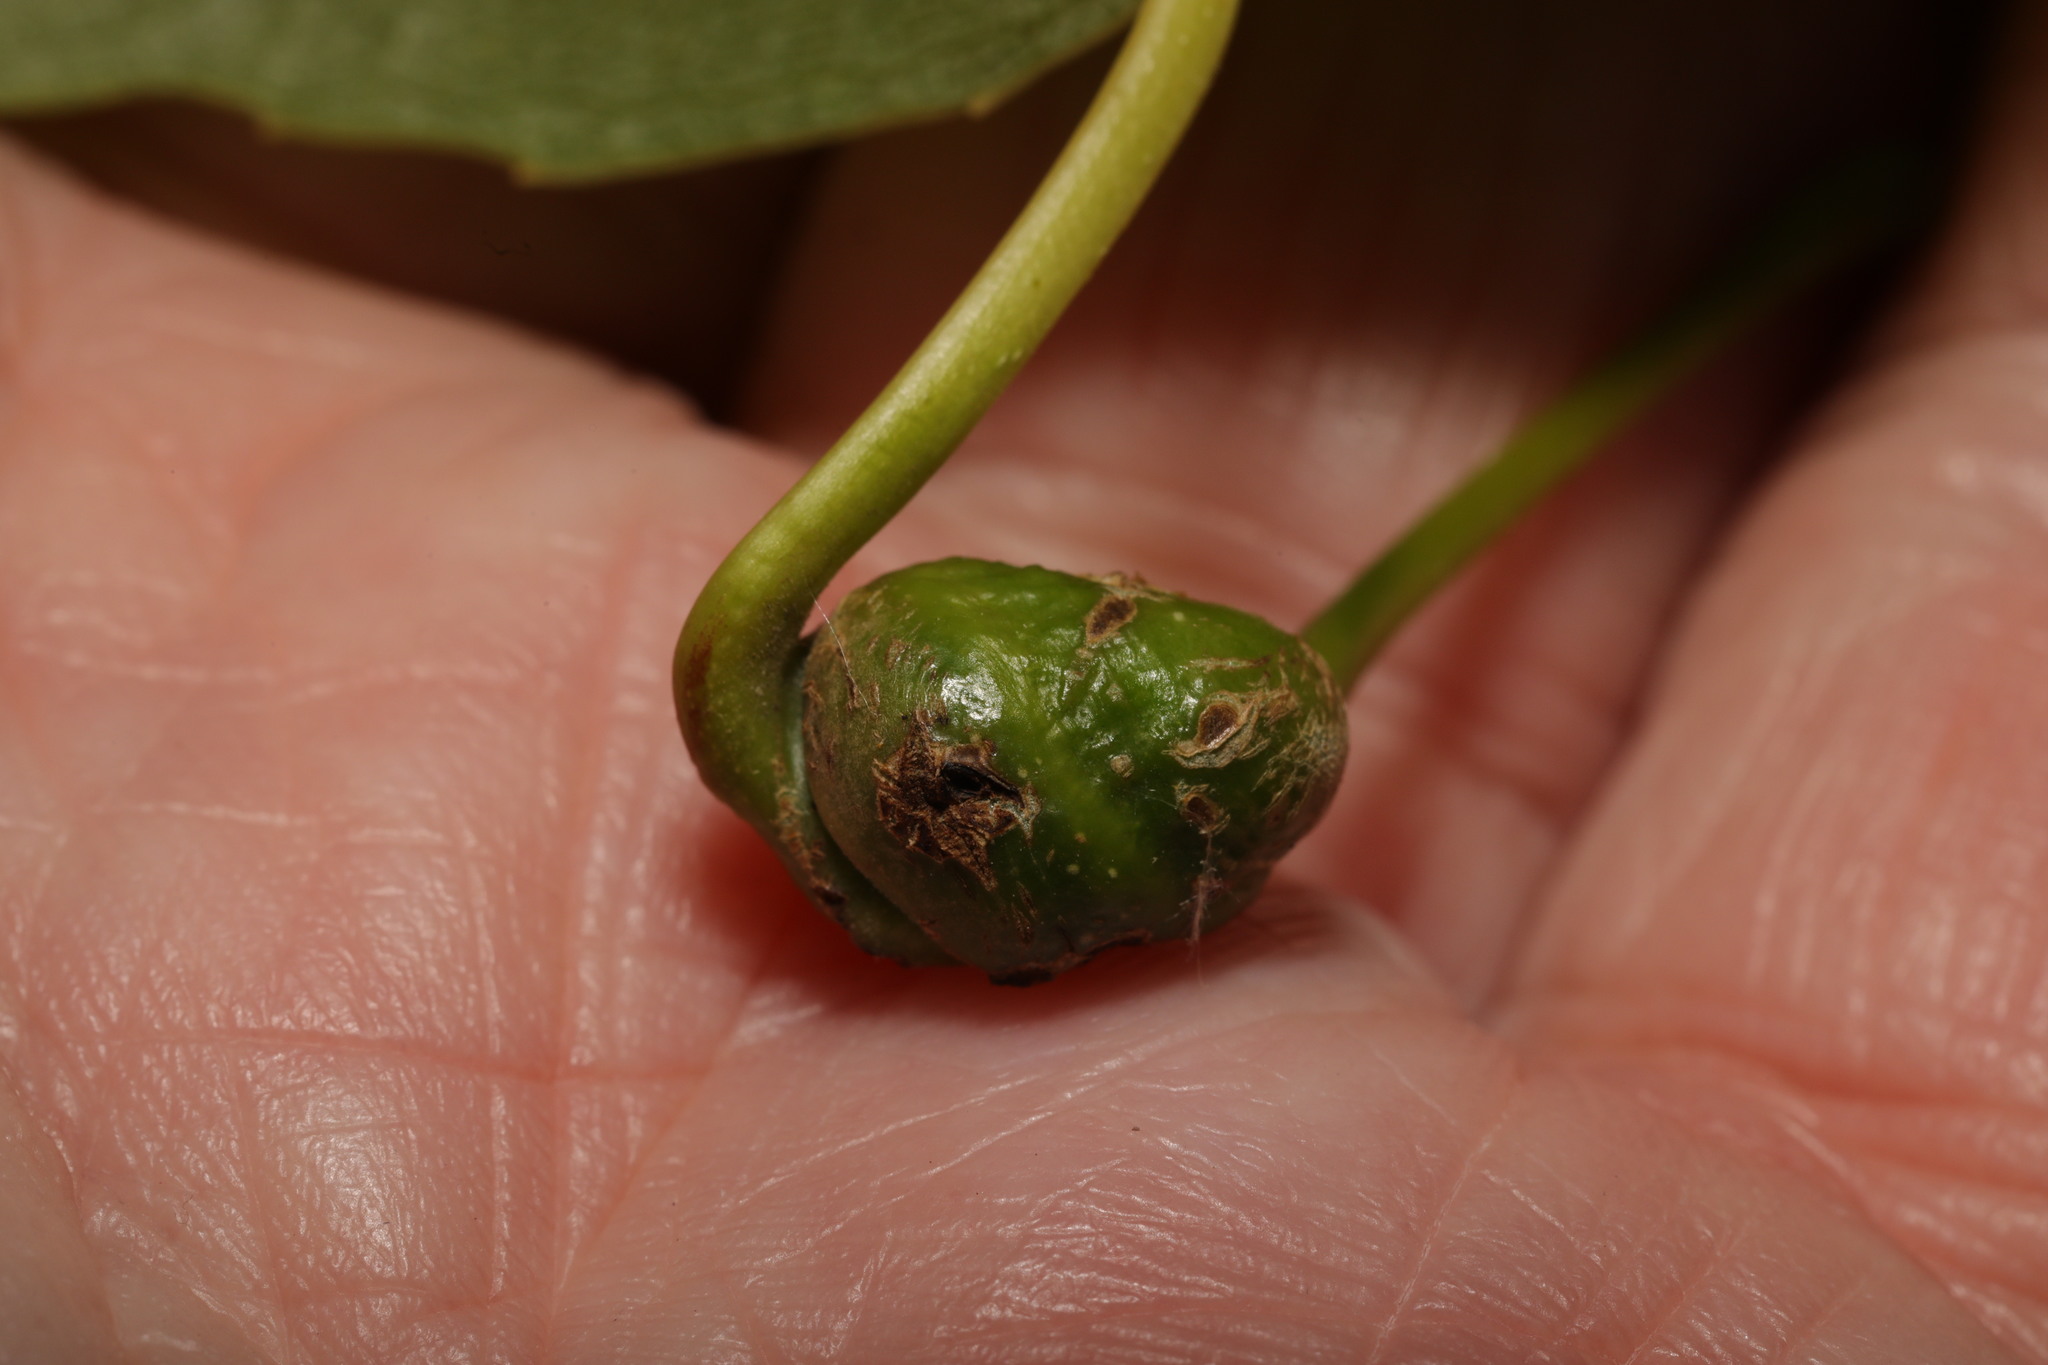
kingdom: Animalia
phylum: Arthropoda
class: Insecta
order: Hemiptera
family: Aphididae
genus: Pemphigus
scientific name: Pemphigus spyrothecae
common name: Aphid
